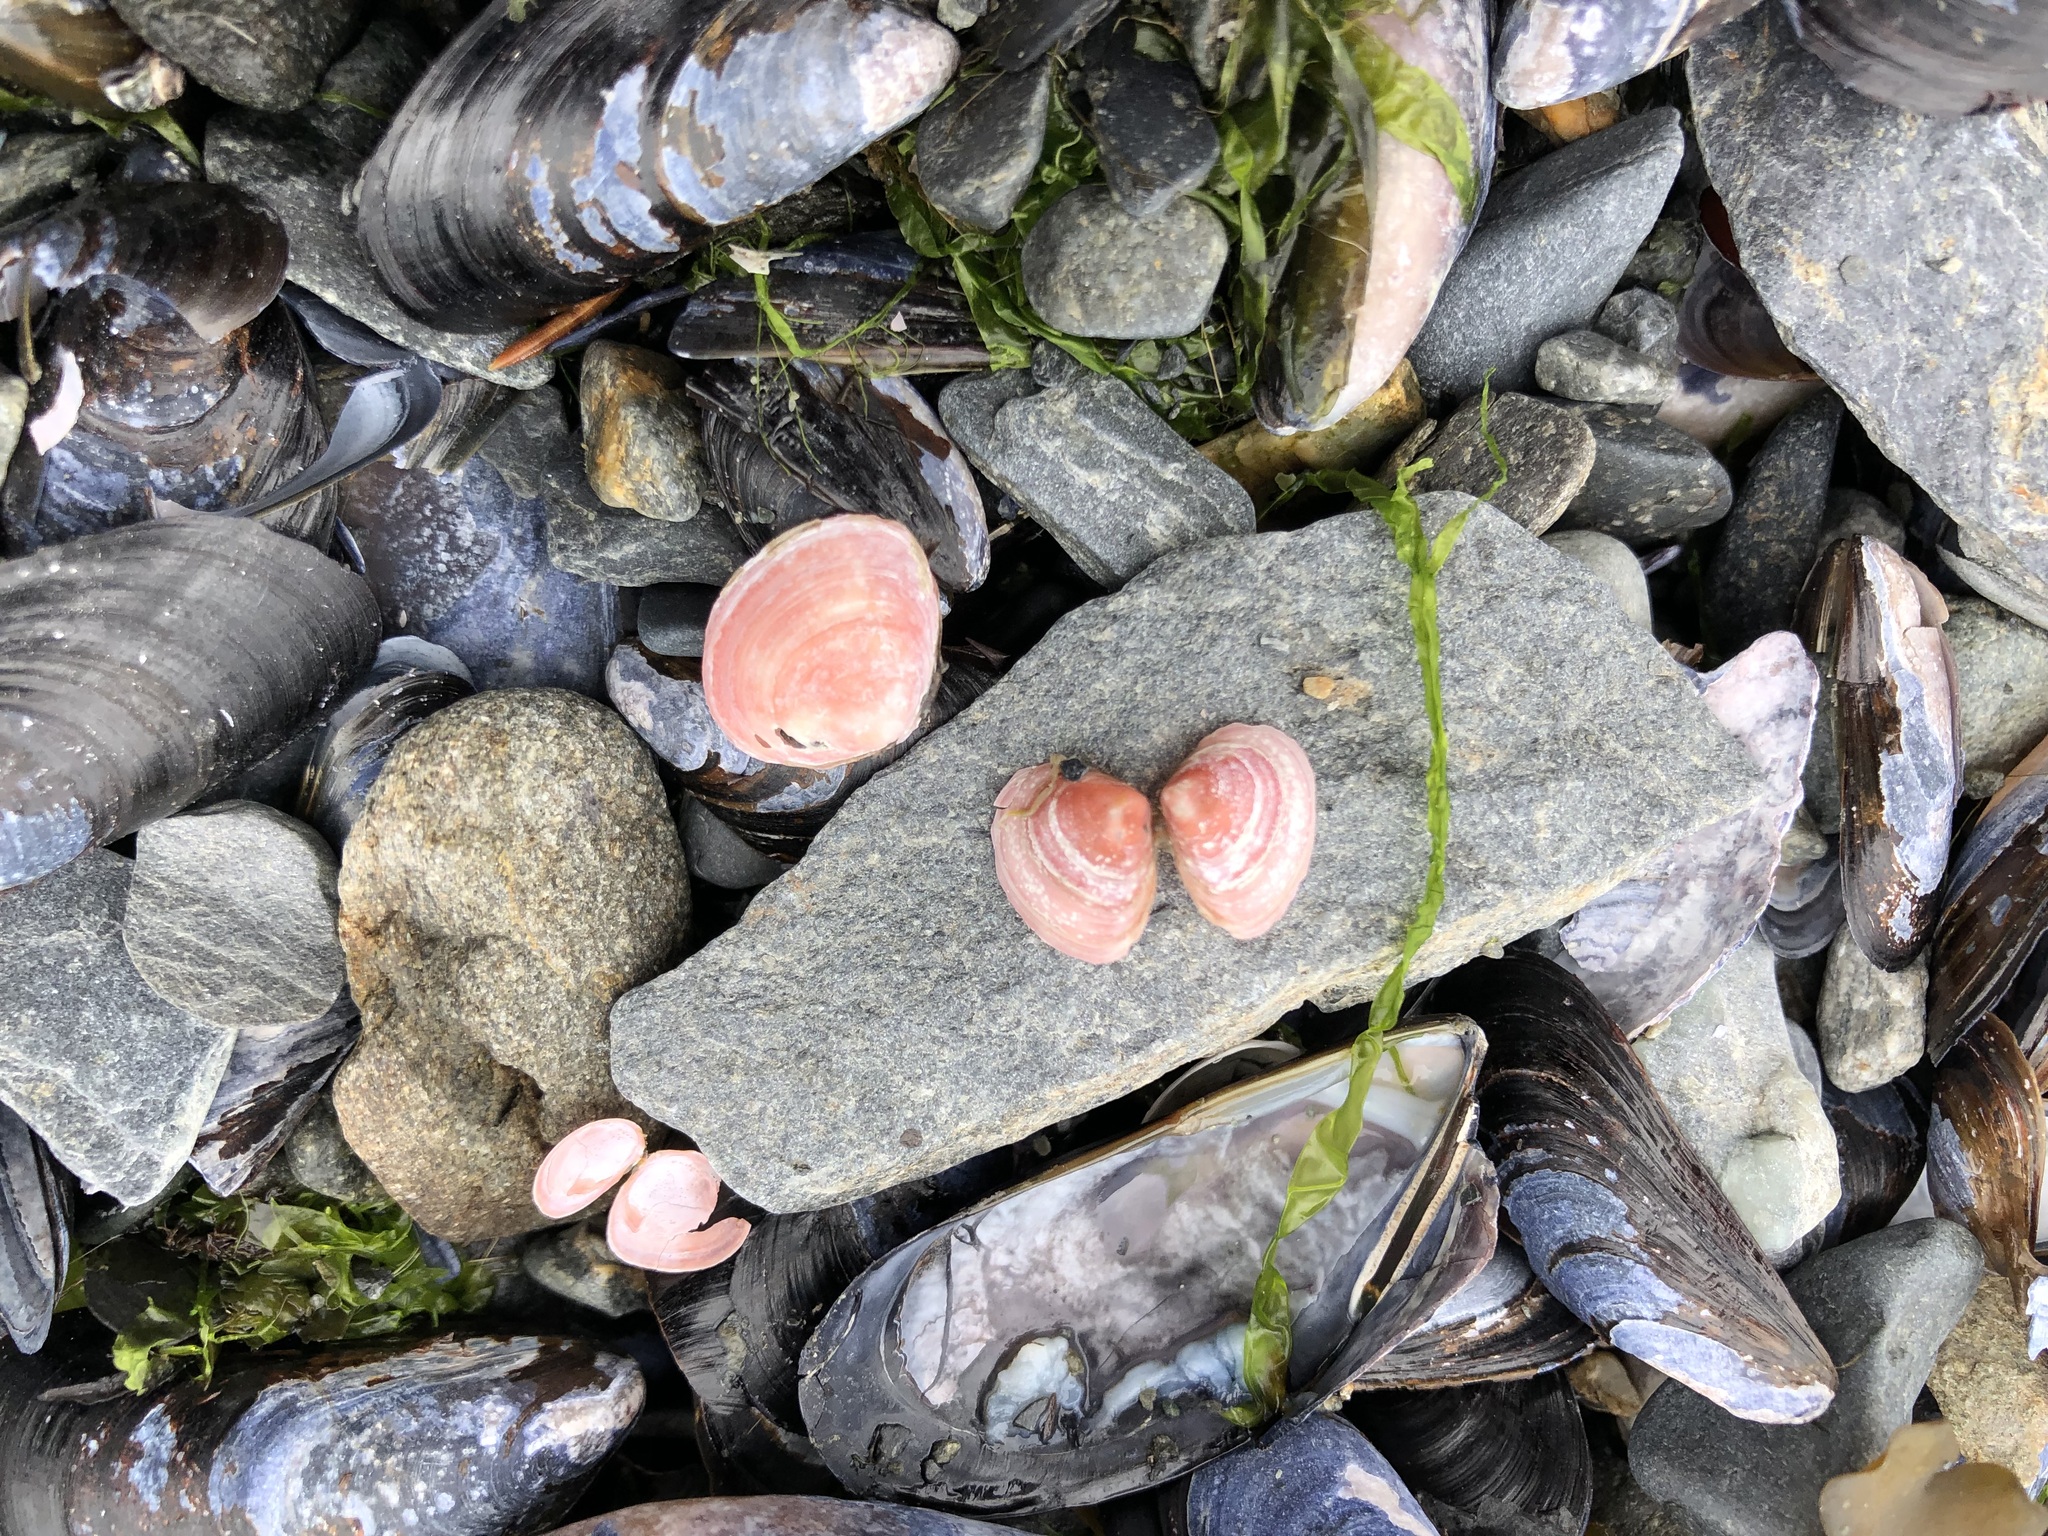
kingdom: Animalia
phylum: Mollusca
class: Bivalvia
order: Cardiida
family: Tellinidae
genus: Macoma
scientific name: Macoma balthica
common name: Baltic tellin
